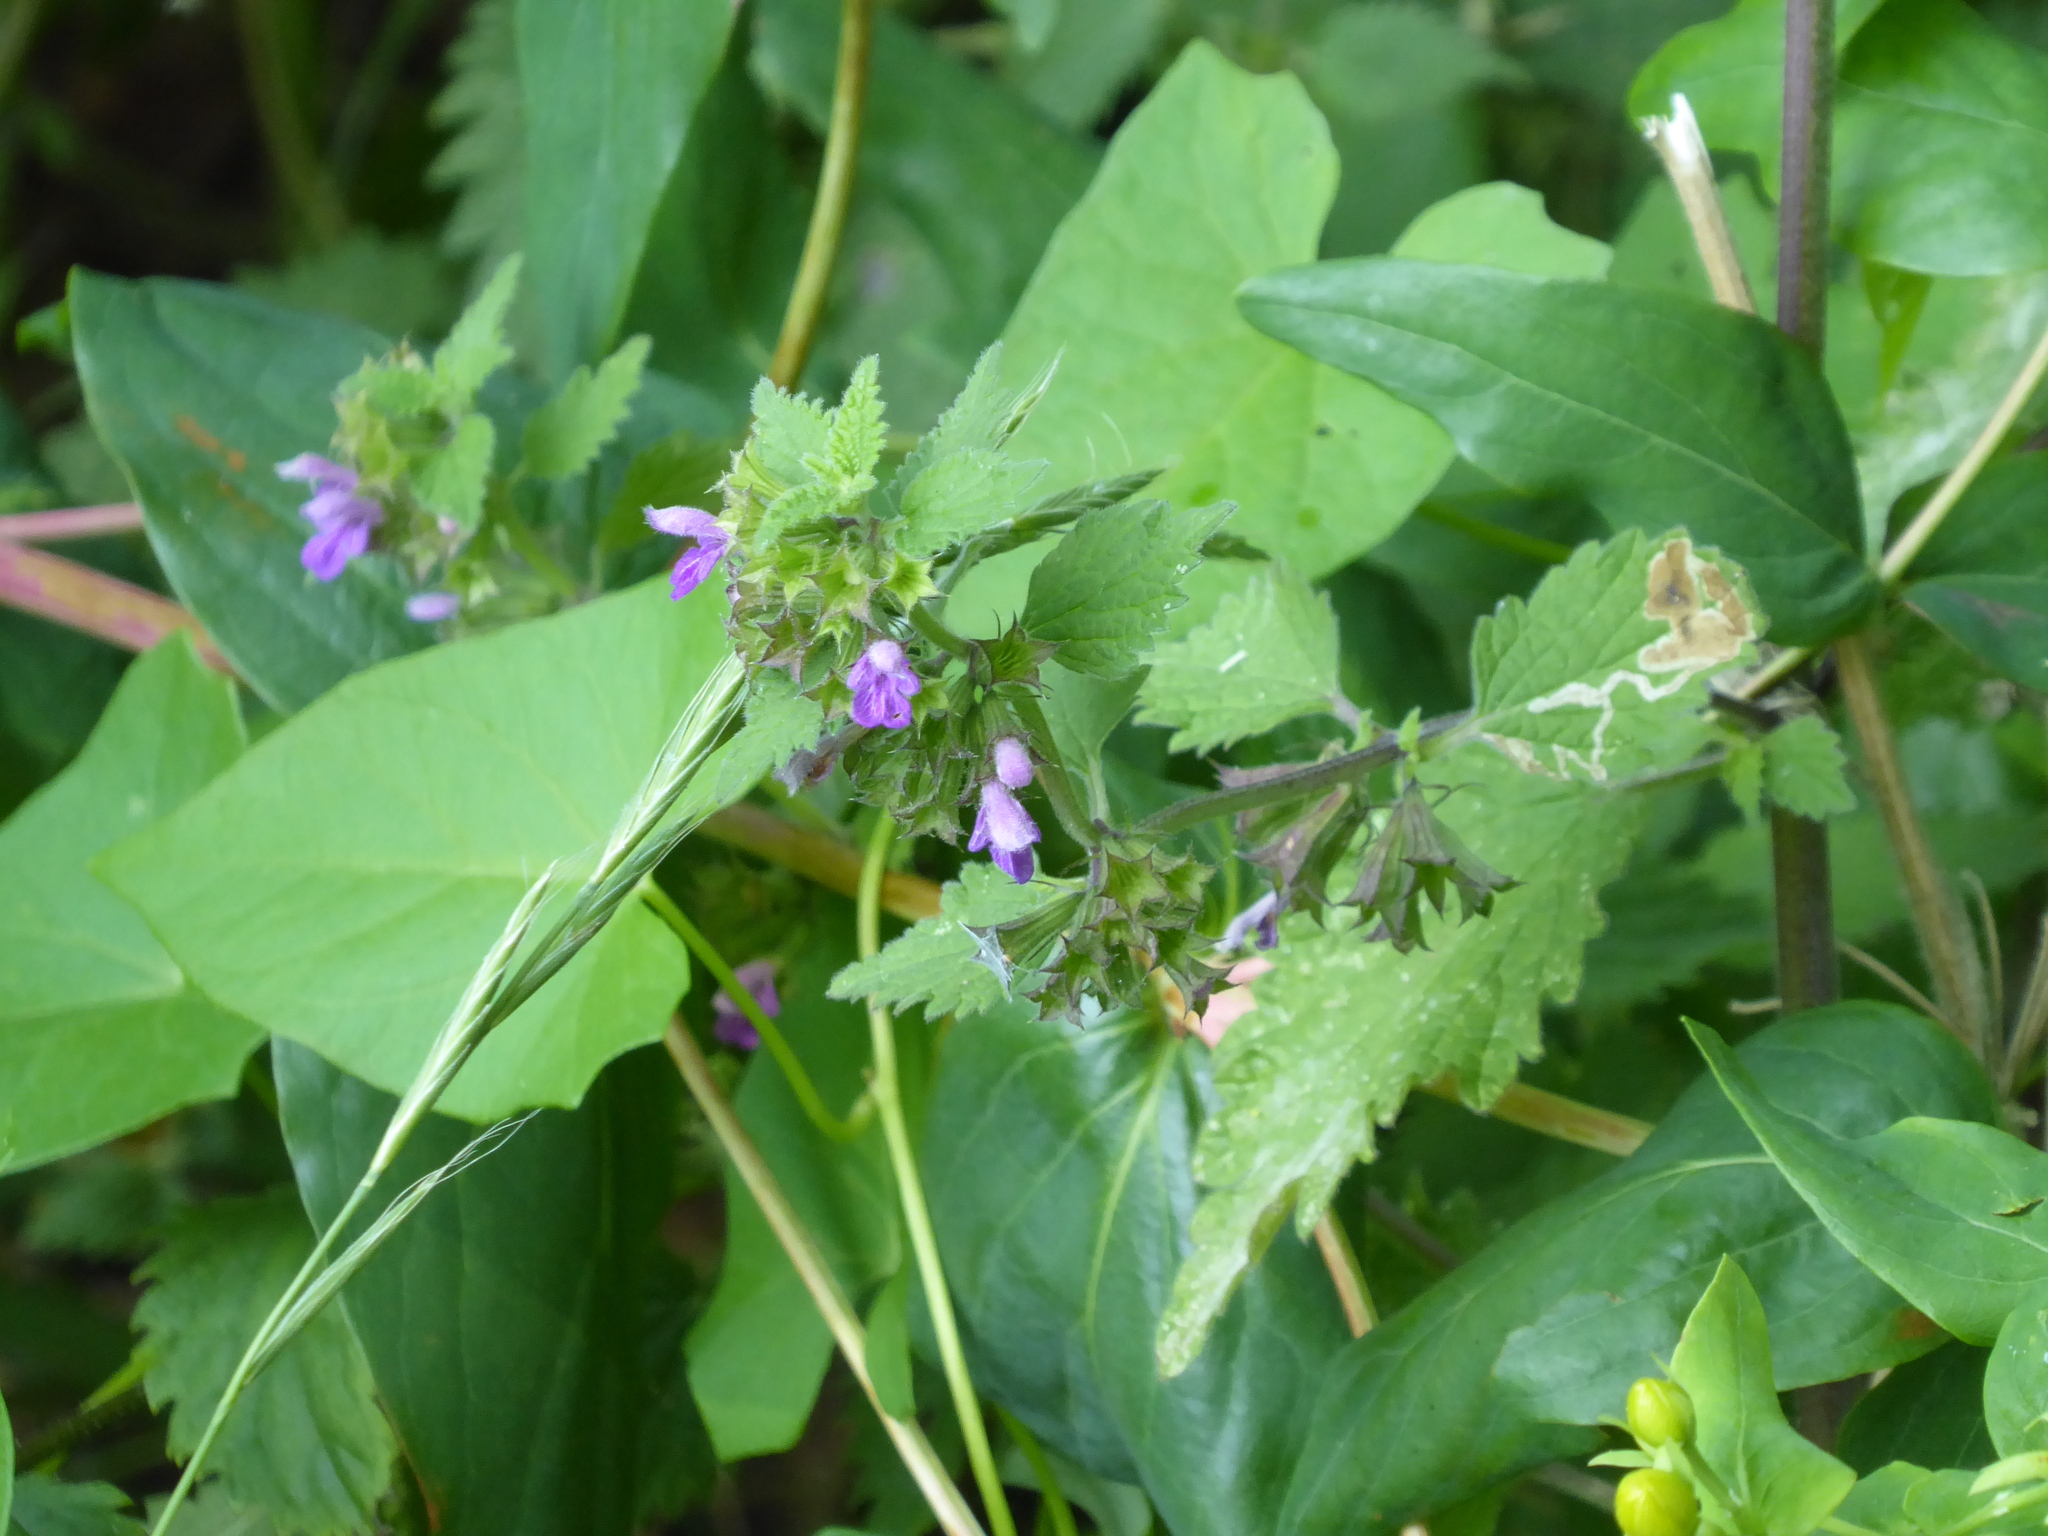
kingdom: Plantae
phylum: Tracheophyta
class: Magnoliopsida
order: Lamiales
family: Lamiaceae
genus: Ballota
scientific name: Ballota nigra
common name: Black horehound
